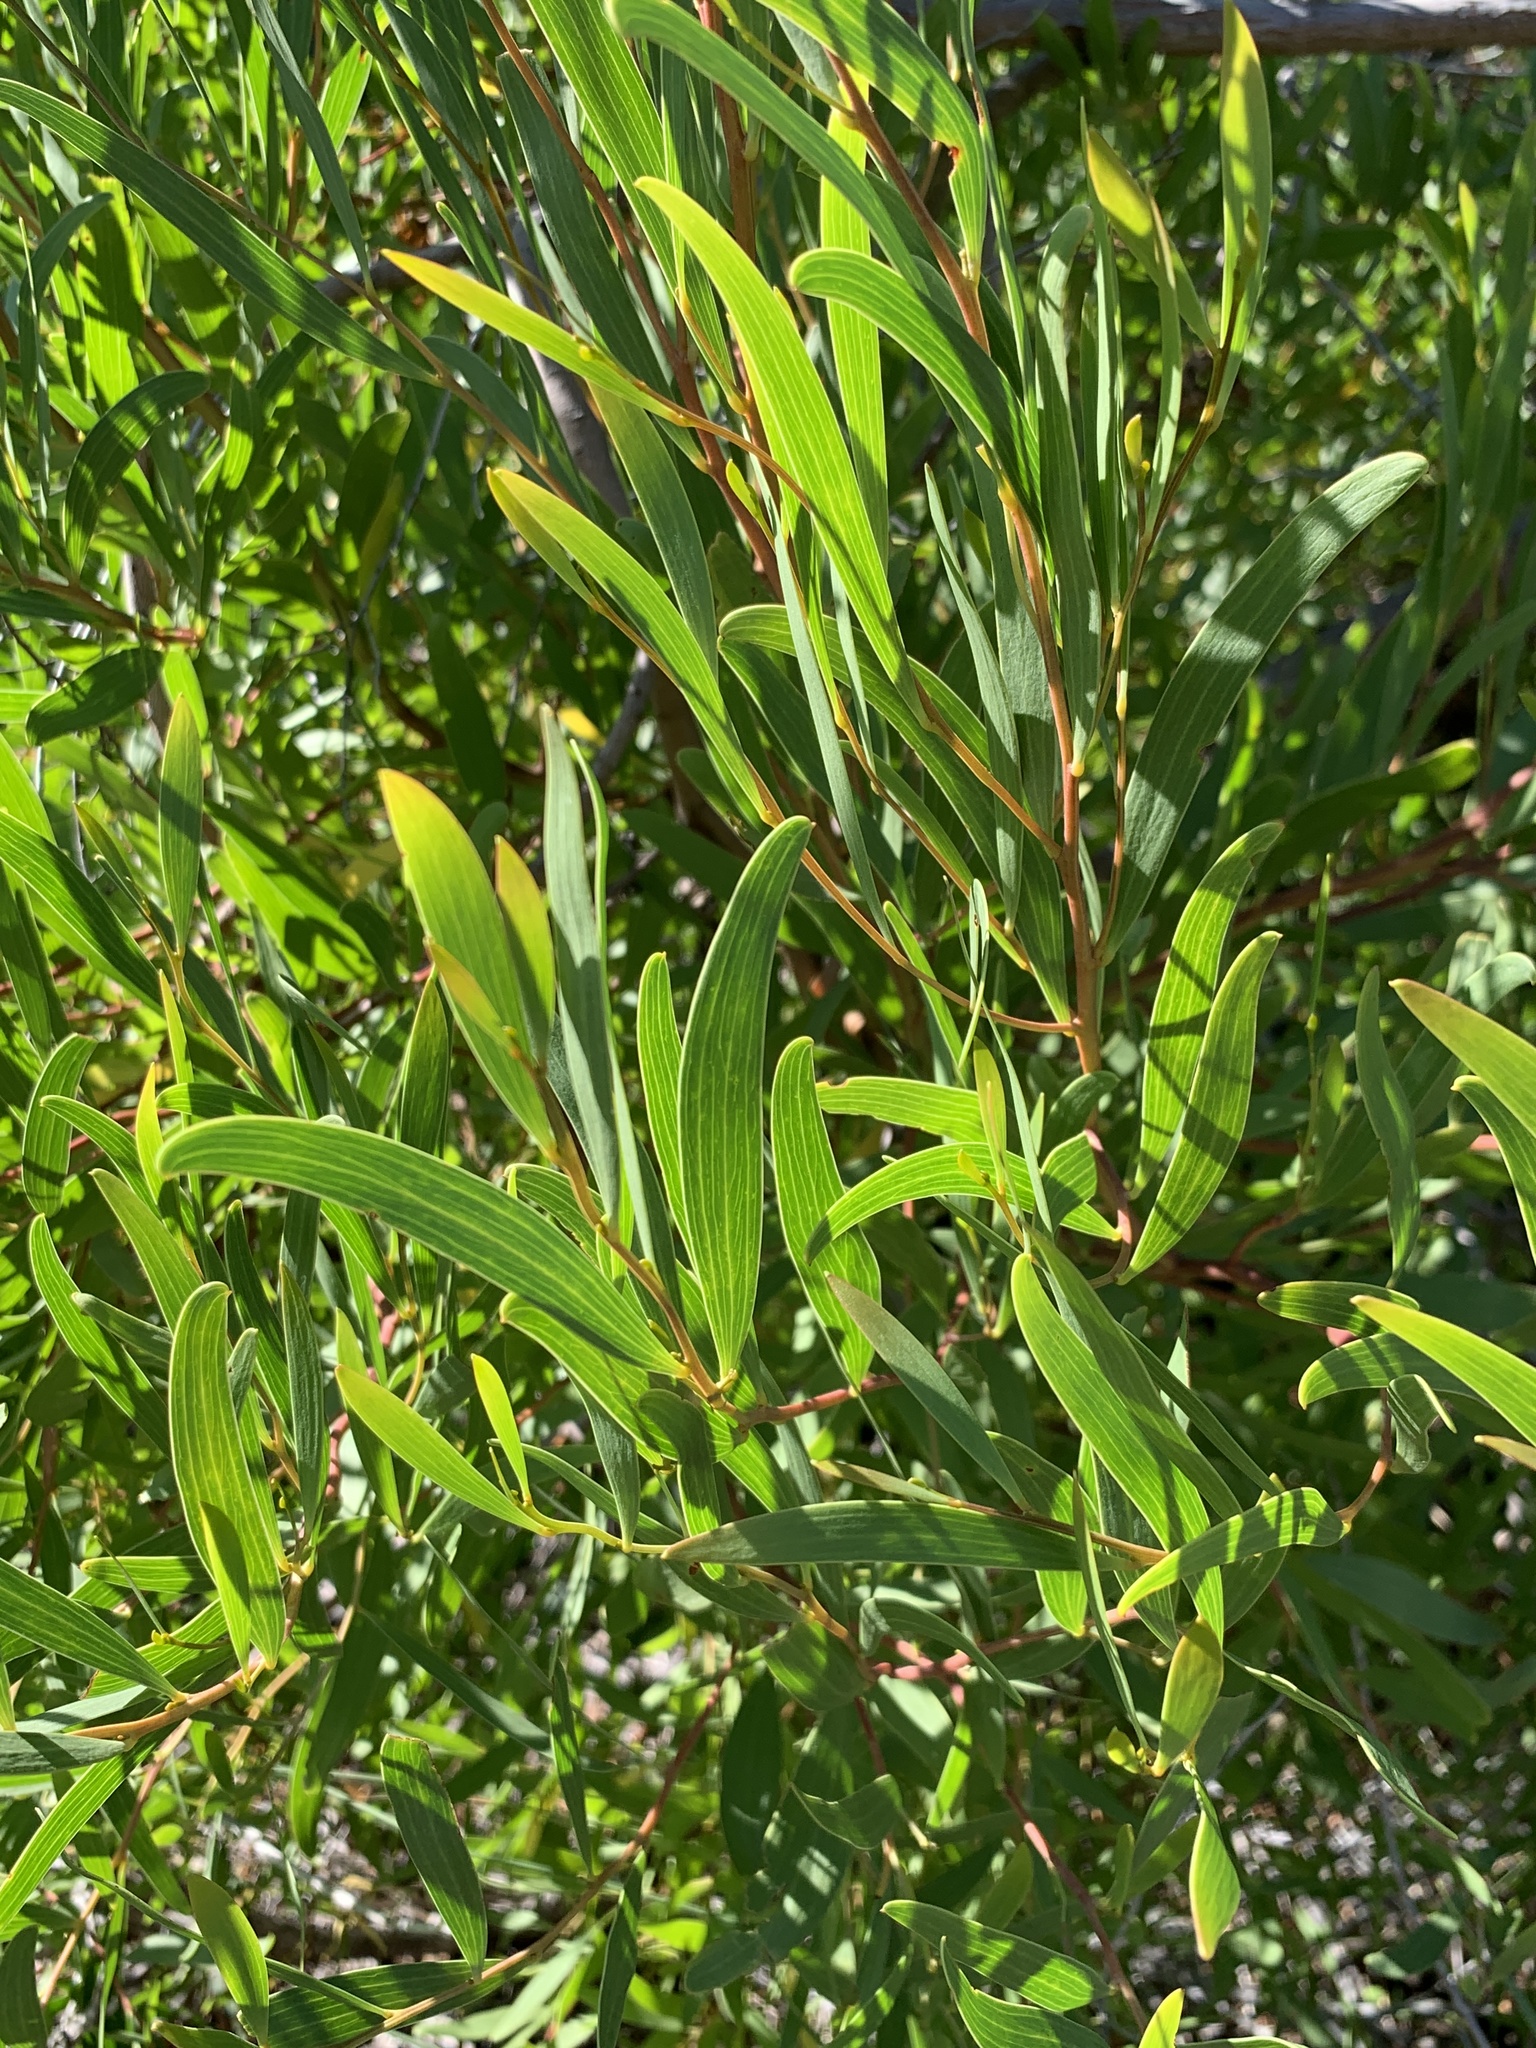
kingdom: Plantae
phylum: Tracheophyta
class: Magnoliopsida
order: Fabales
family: Fabaceae
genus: Acacia
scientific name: Acacia cyclops
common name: Coastal wattle
